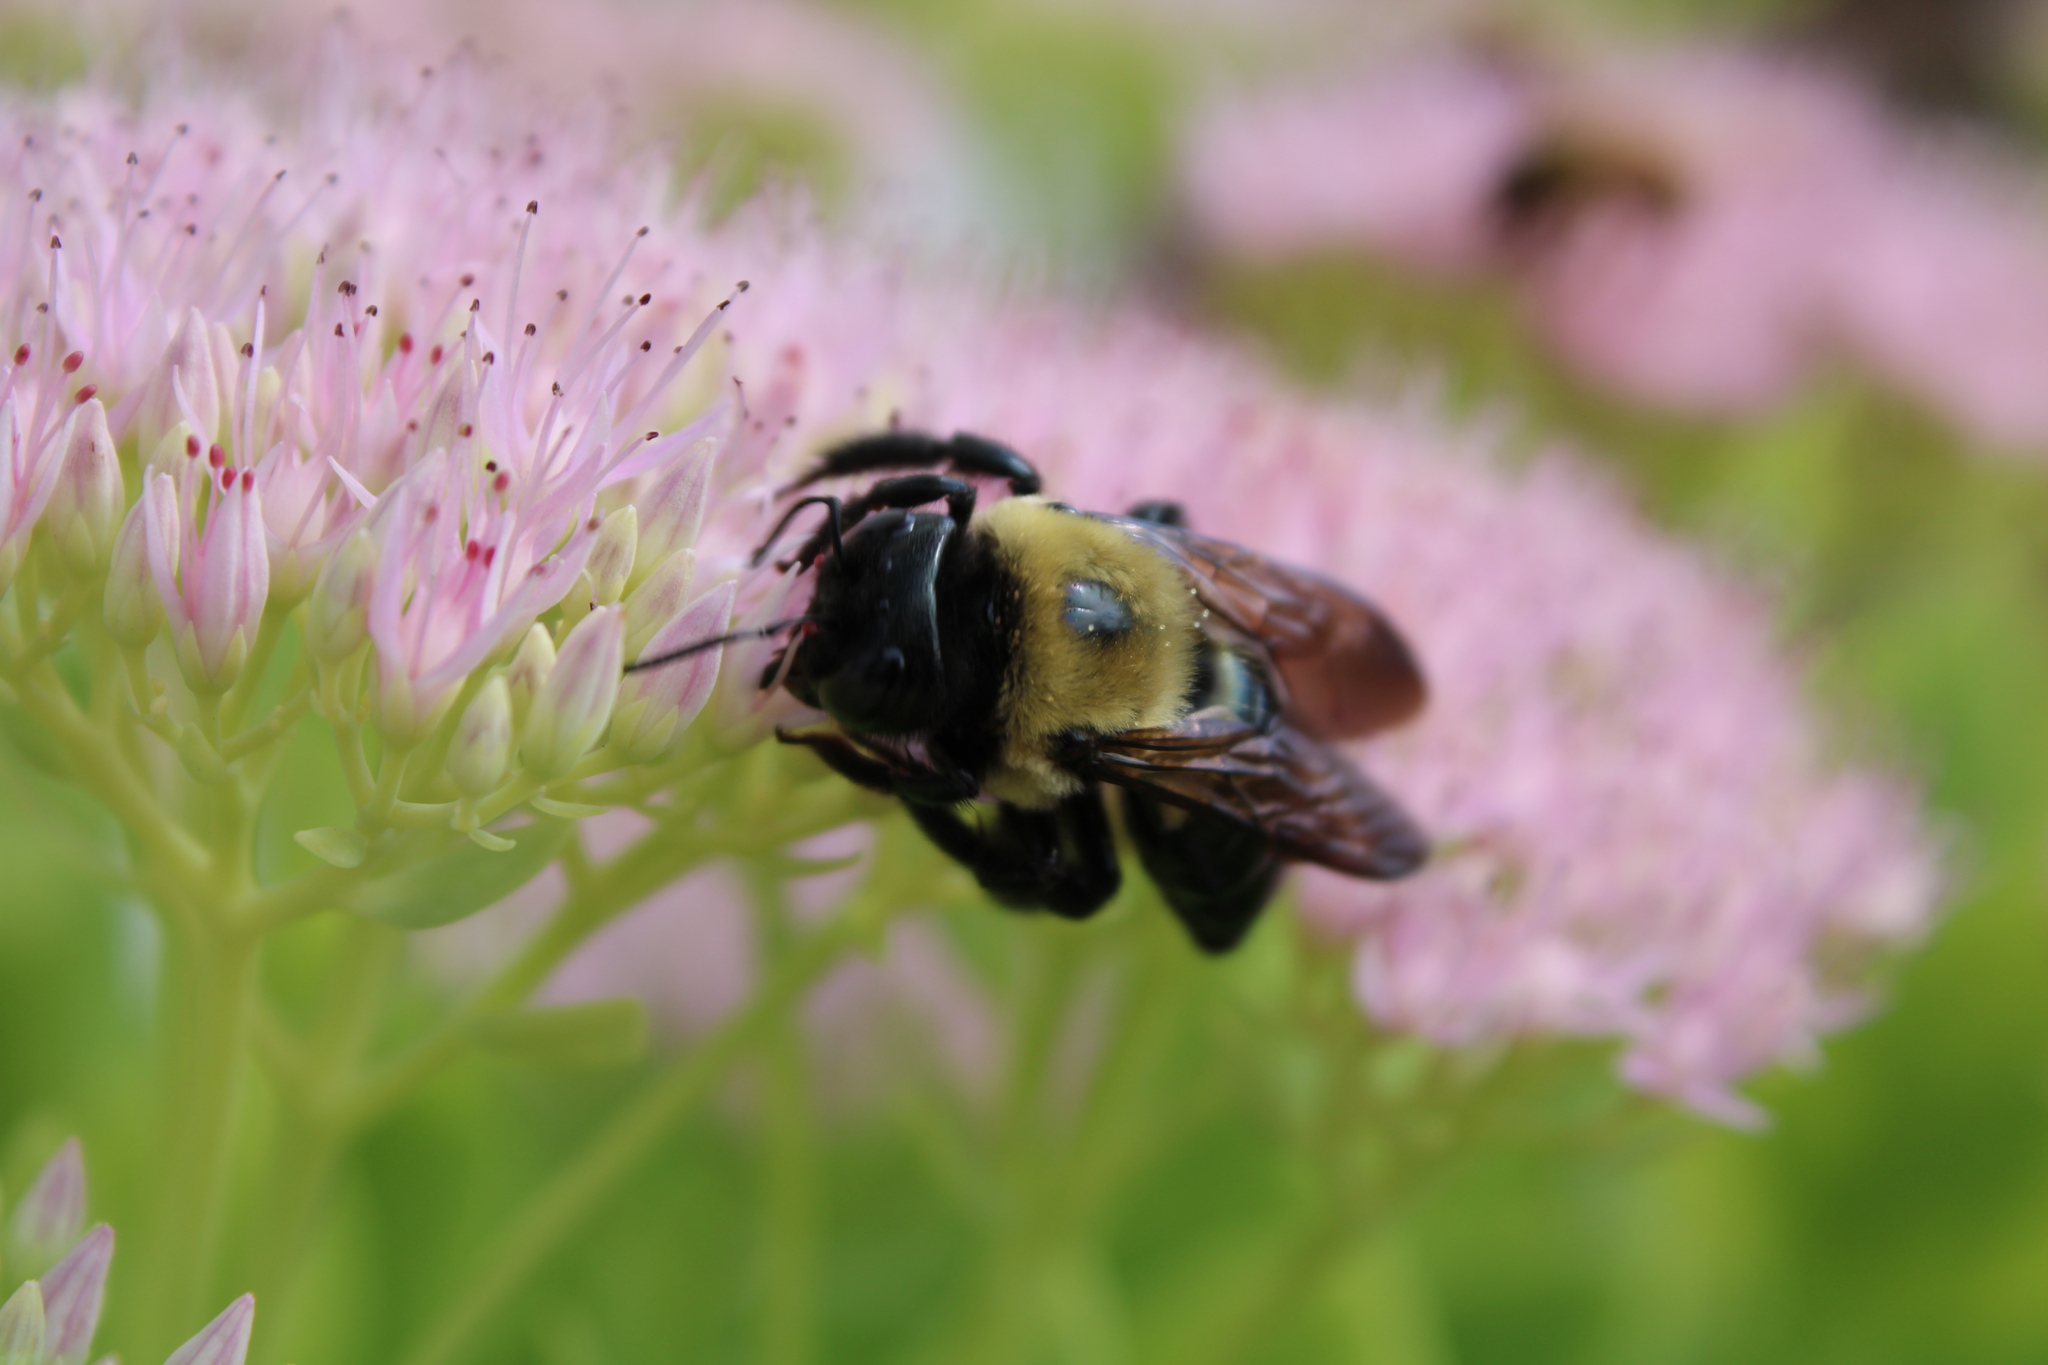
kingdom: Animalia
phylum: Arthropoda
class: Insecta
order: Hymenoptera
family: Apidae
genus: Xylocopa
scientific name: Xylocopa virginica
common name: Carpenter bee
